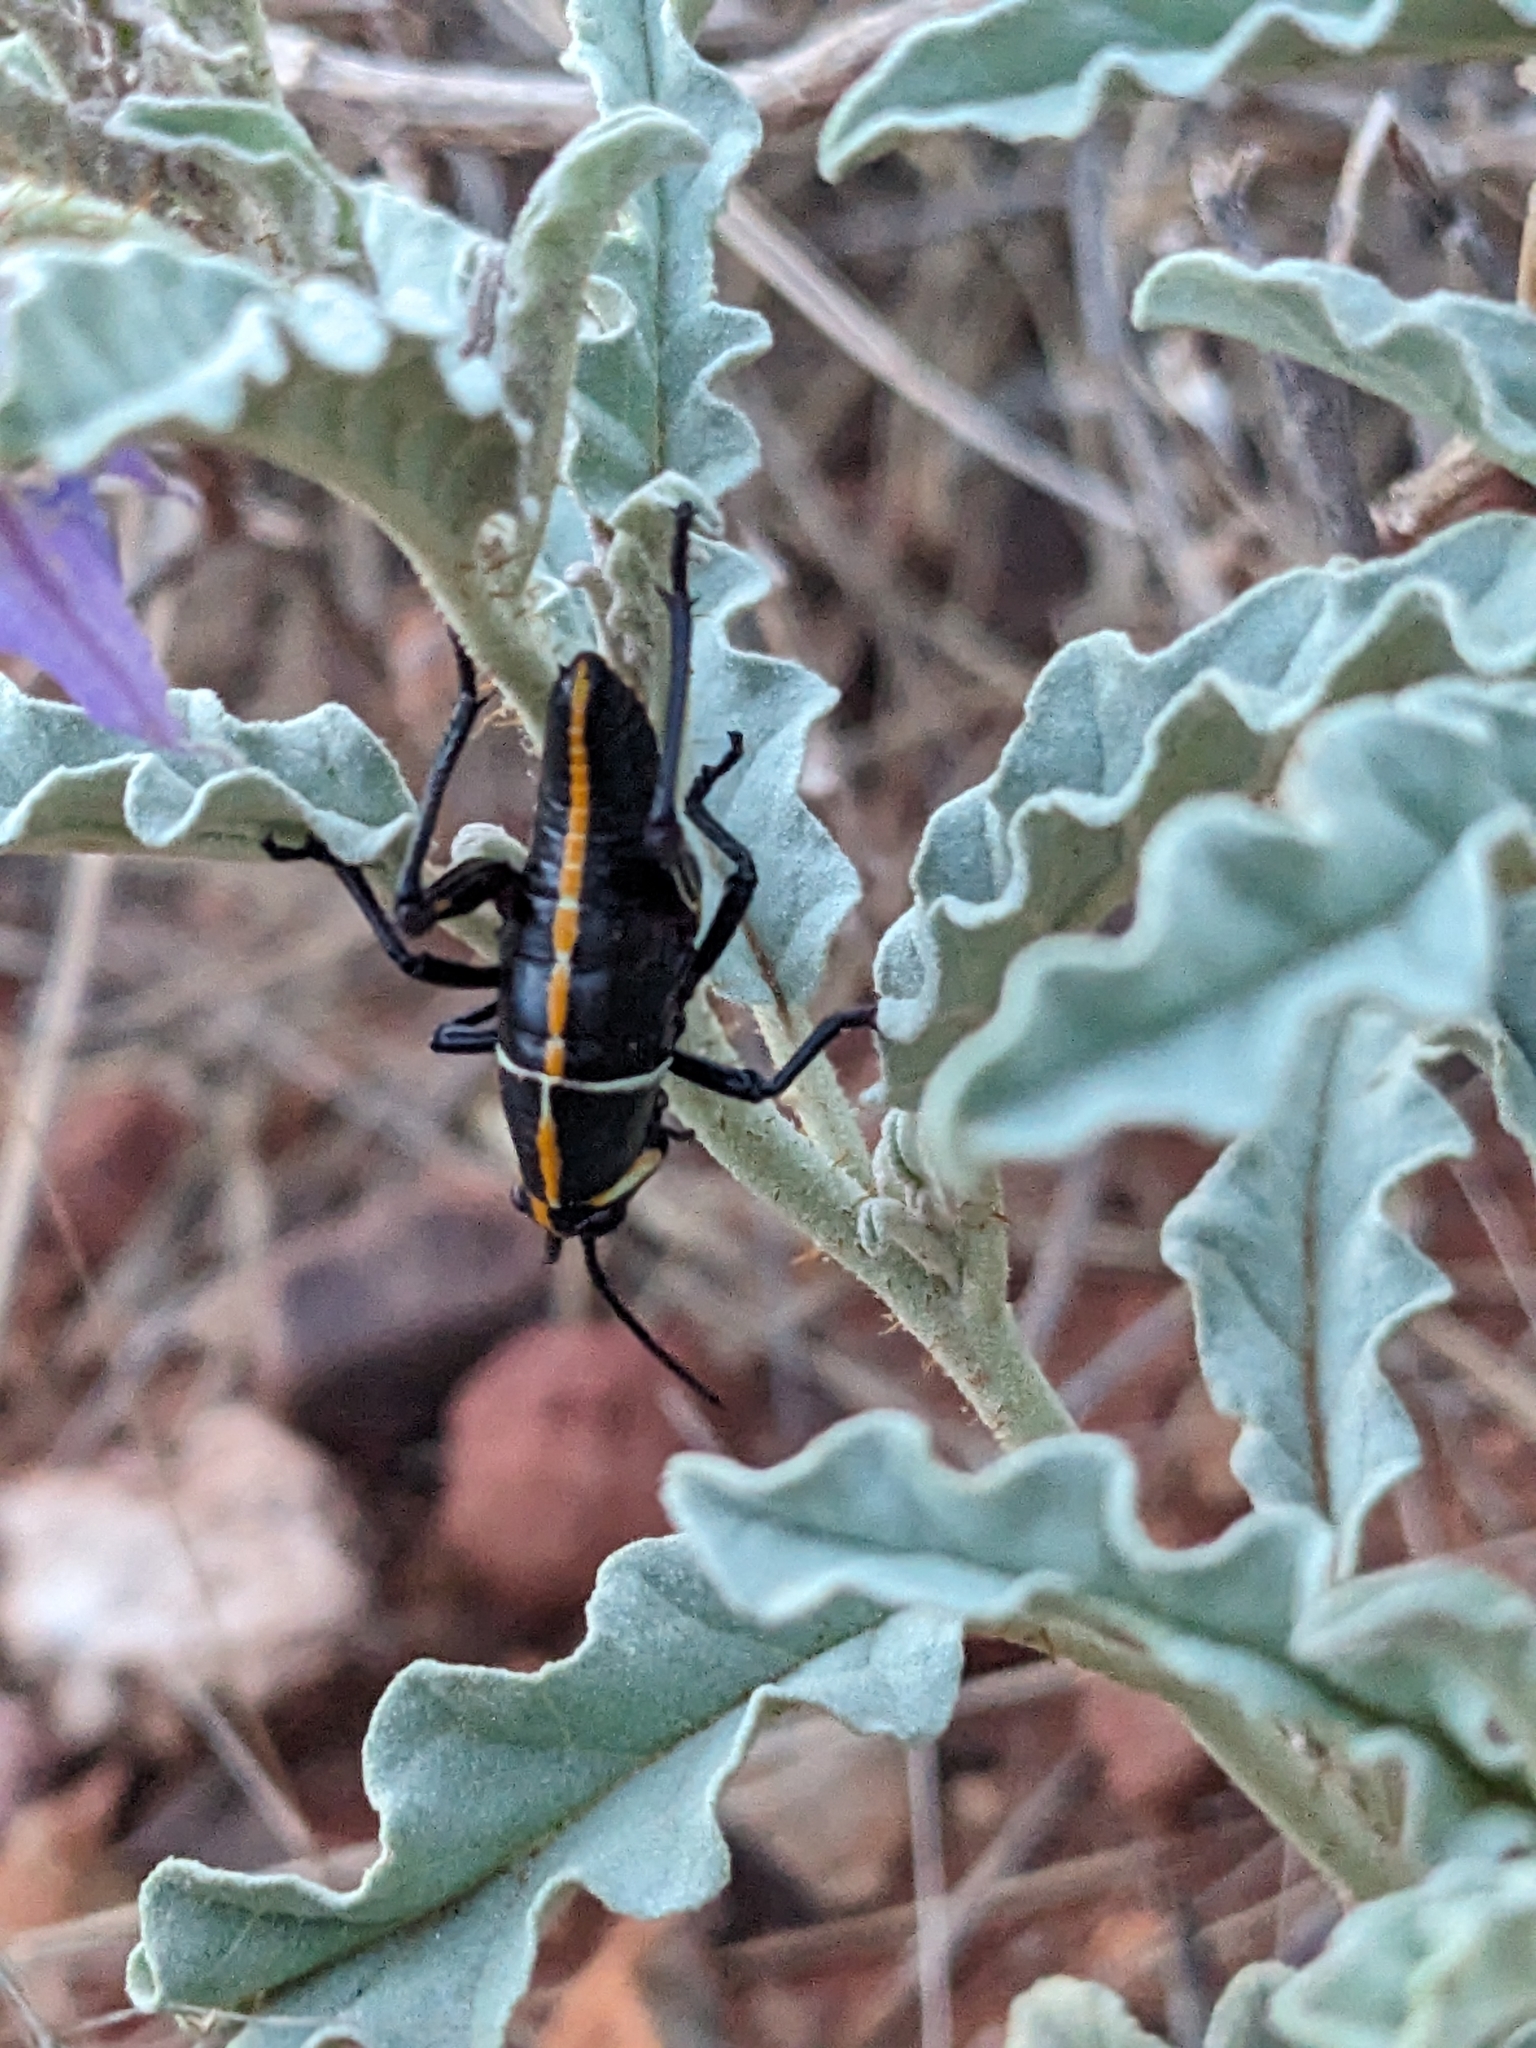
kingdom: Animalia
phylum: Arthropoda
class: Insecta
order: Orthoptera
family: Romaleidae
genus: Romalea
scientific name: Romalea
